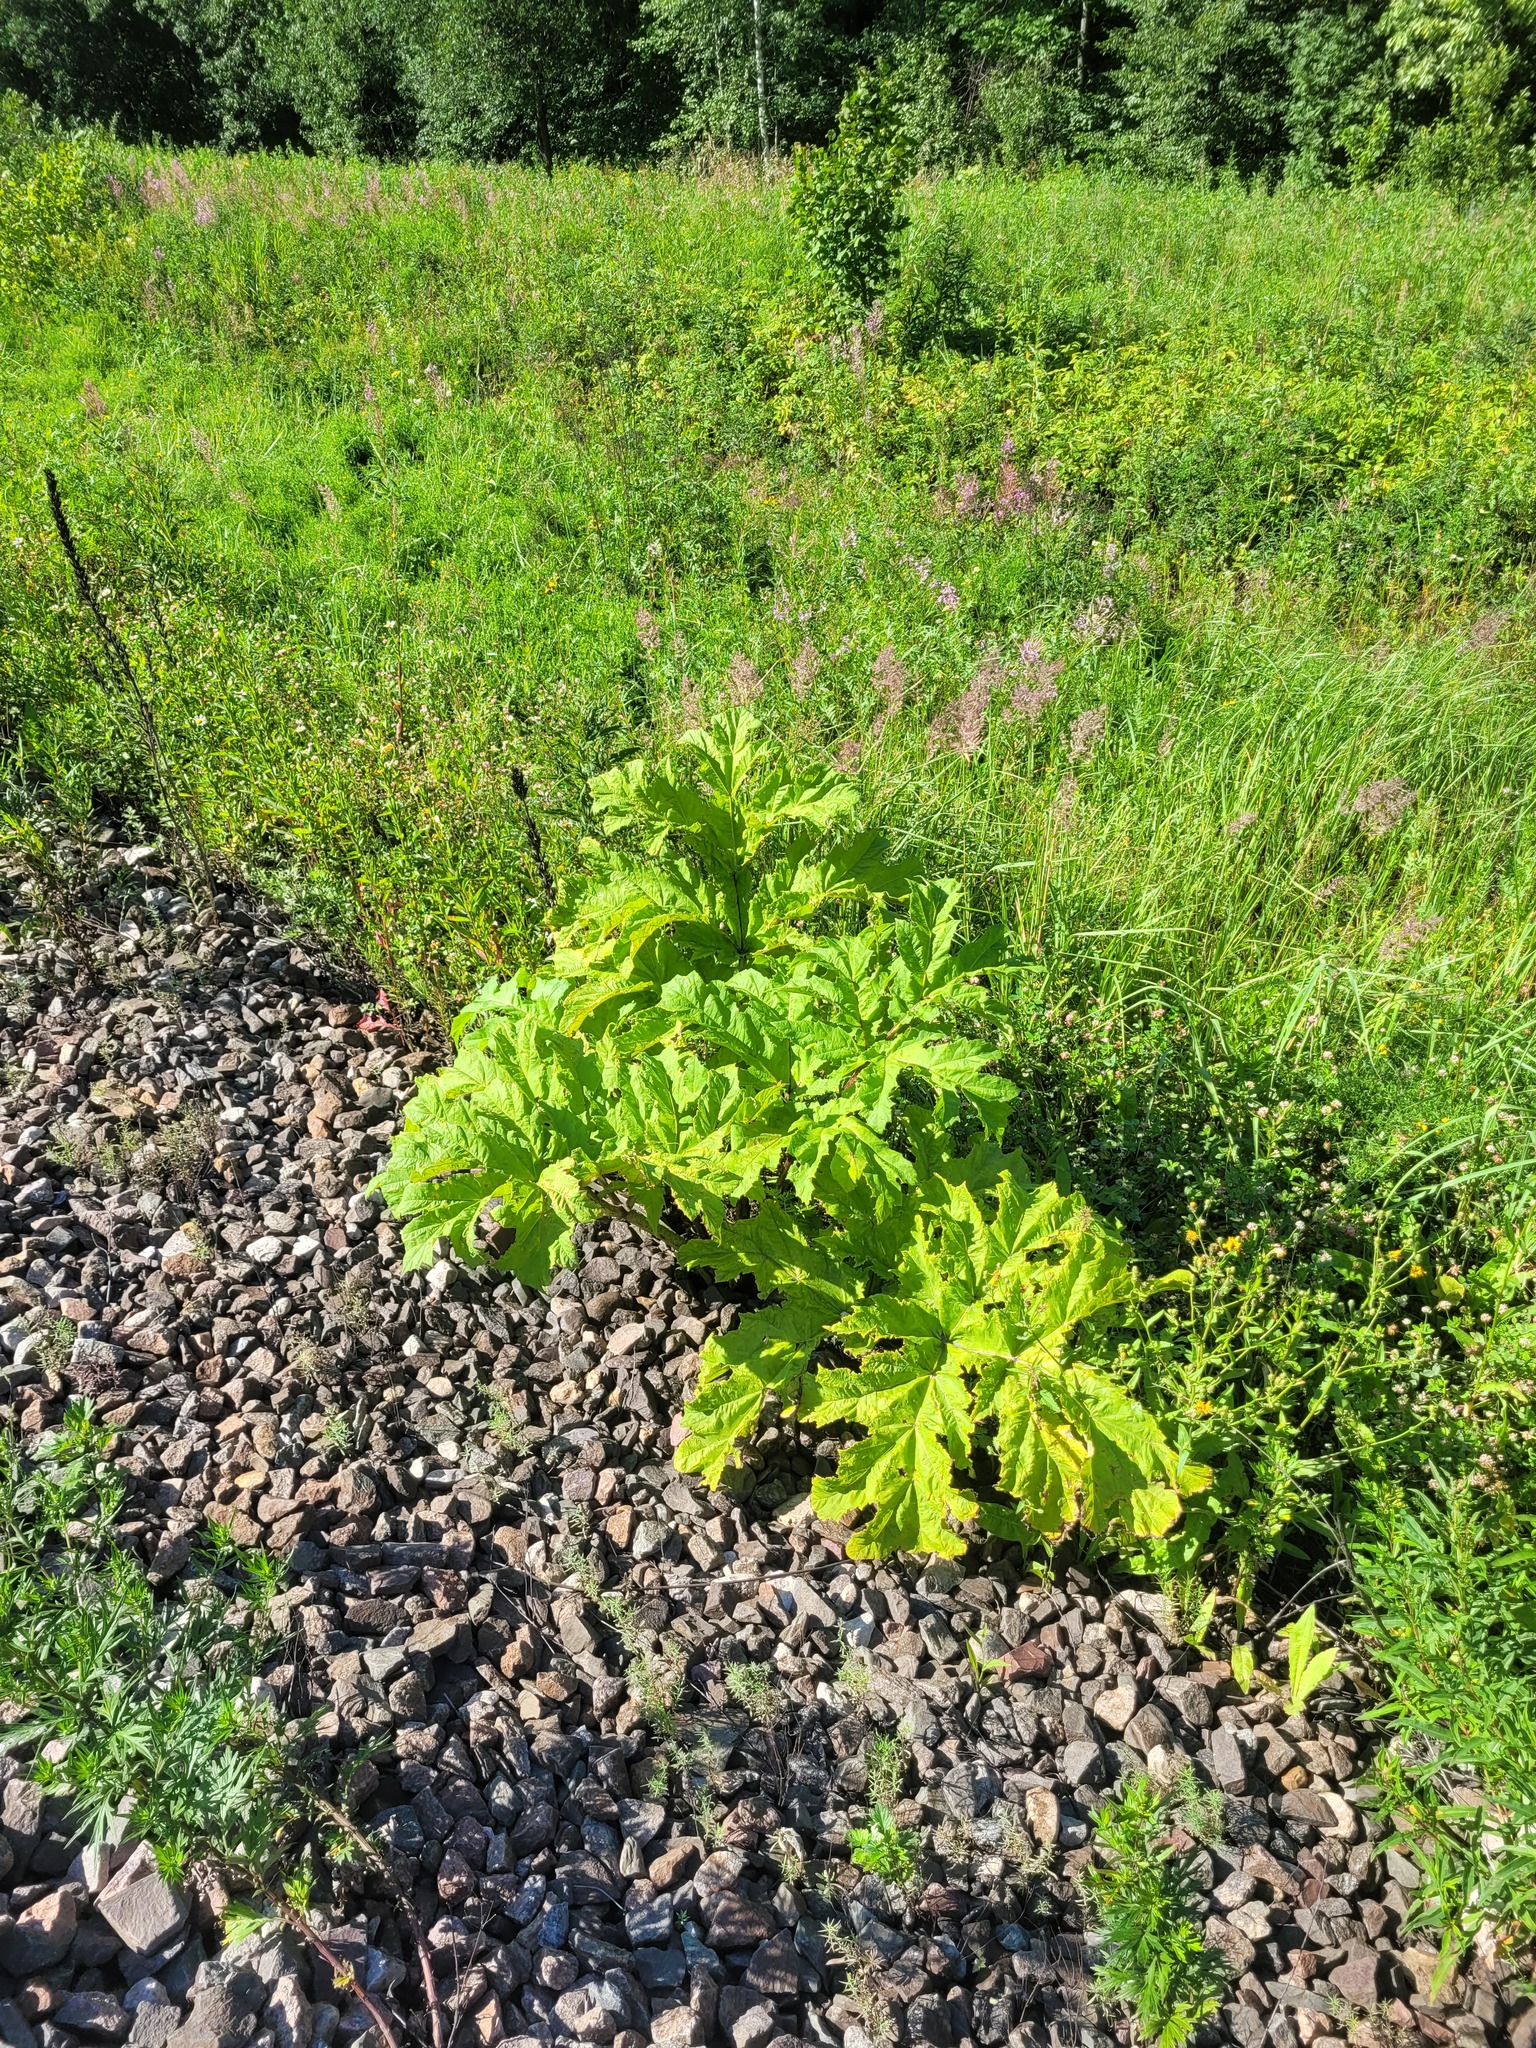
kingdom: Plantae
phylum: Tracheophyta
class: Magnoliopsida
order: Apiales
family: Apiaceae
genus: Heracleum
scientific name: Heracleum sosnowskyi
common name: Sosnowsky's hogweed
